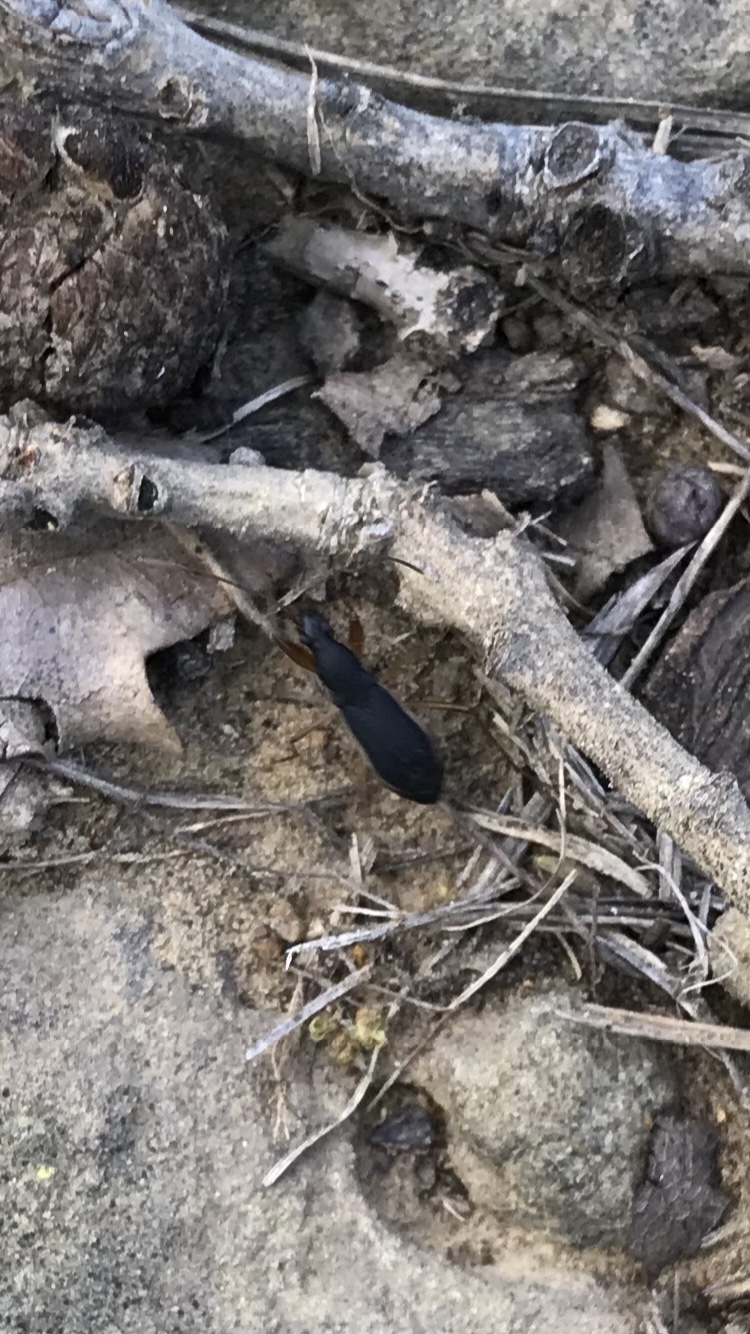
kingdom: Animalia
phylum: Arthropoda
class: Insecta
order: Hemiptera
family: Rhyparochromidae
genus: Cnemodus
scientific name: Cnemodus mavortius
